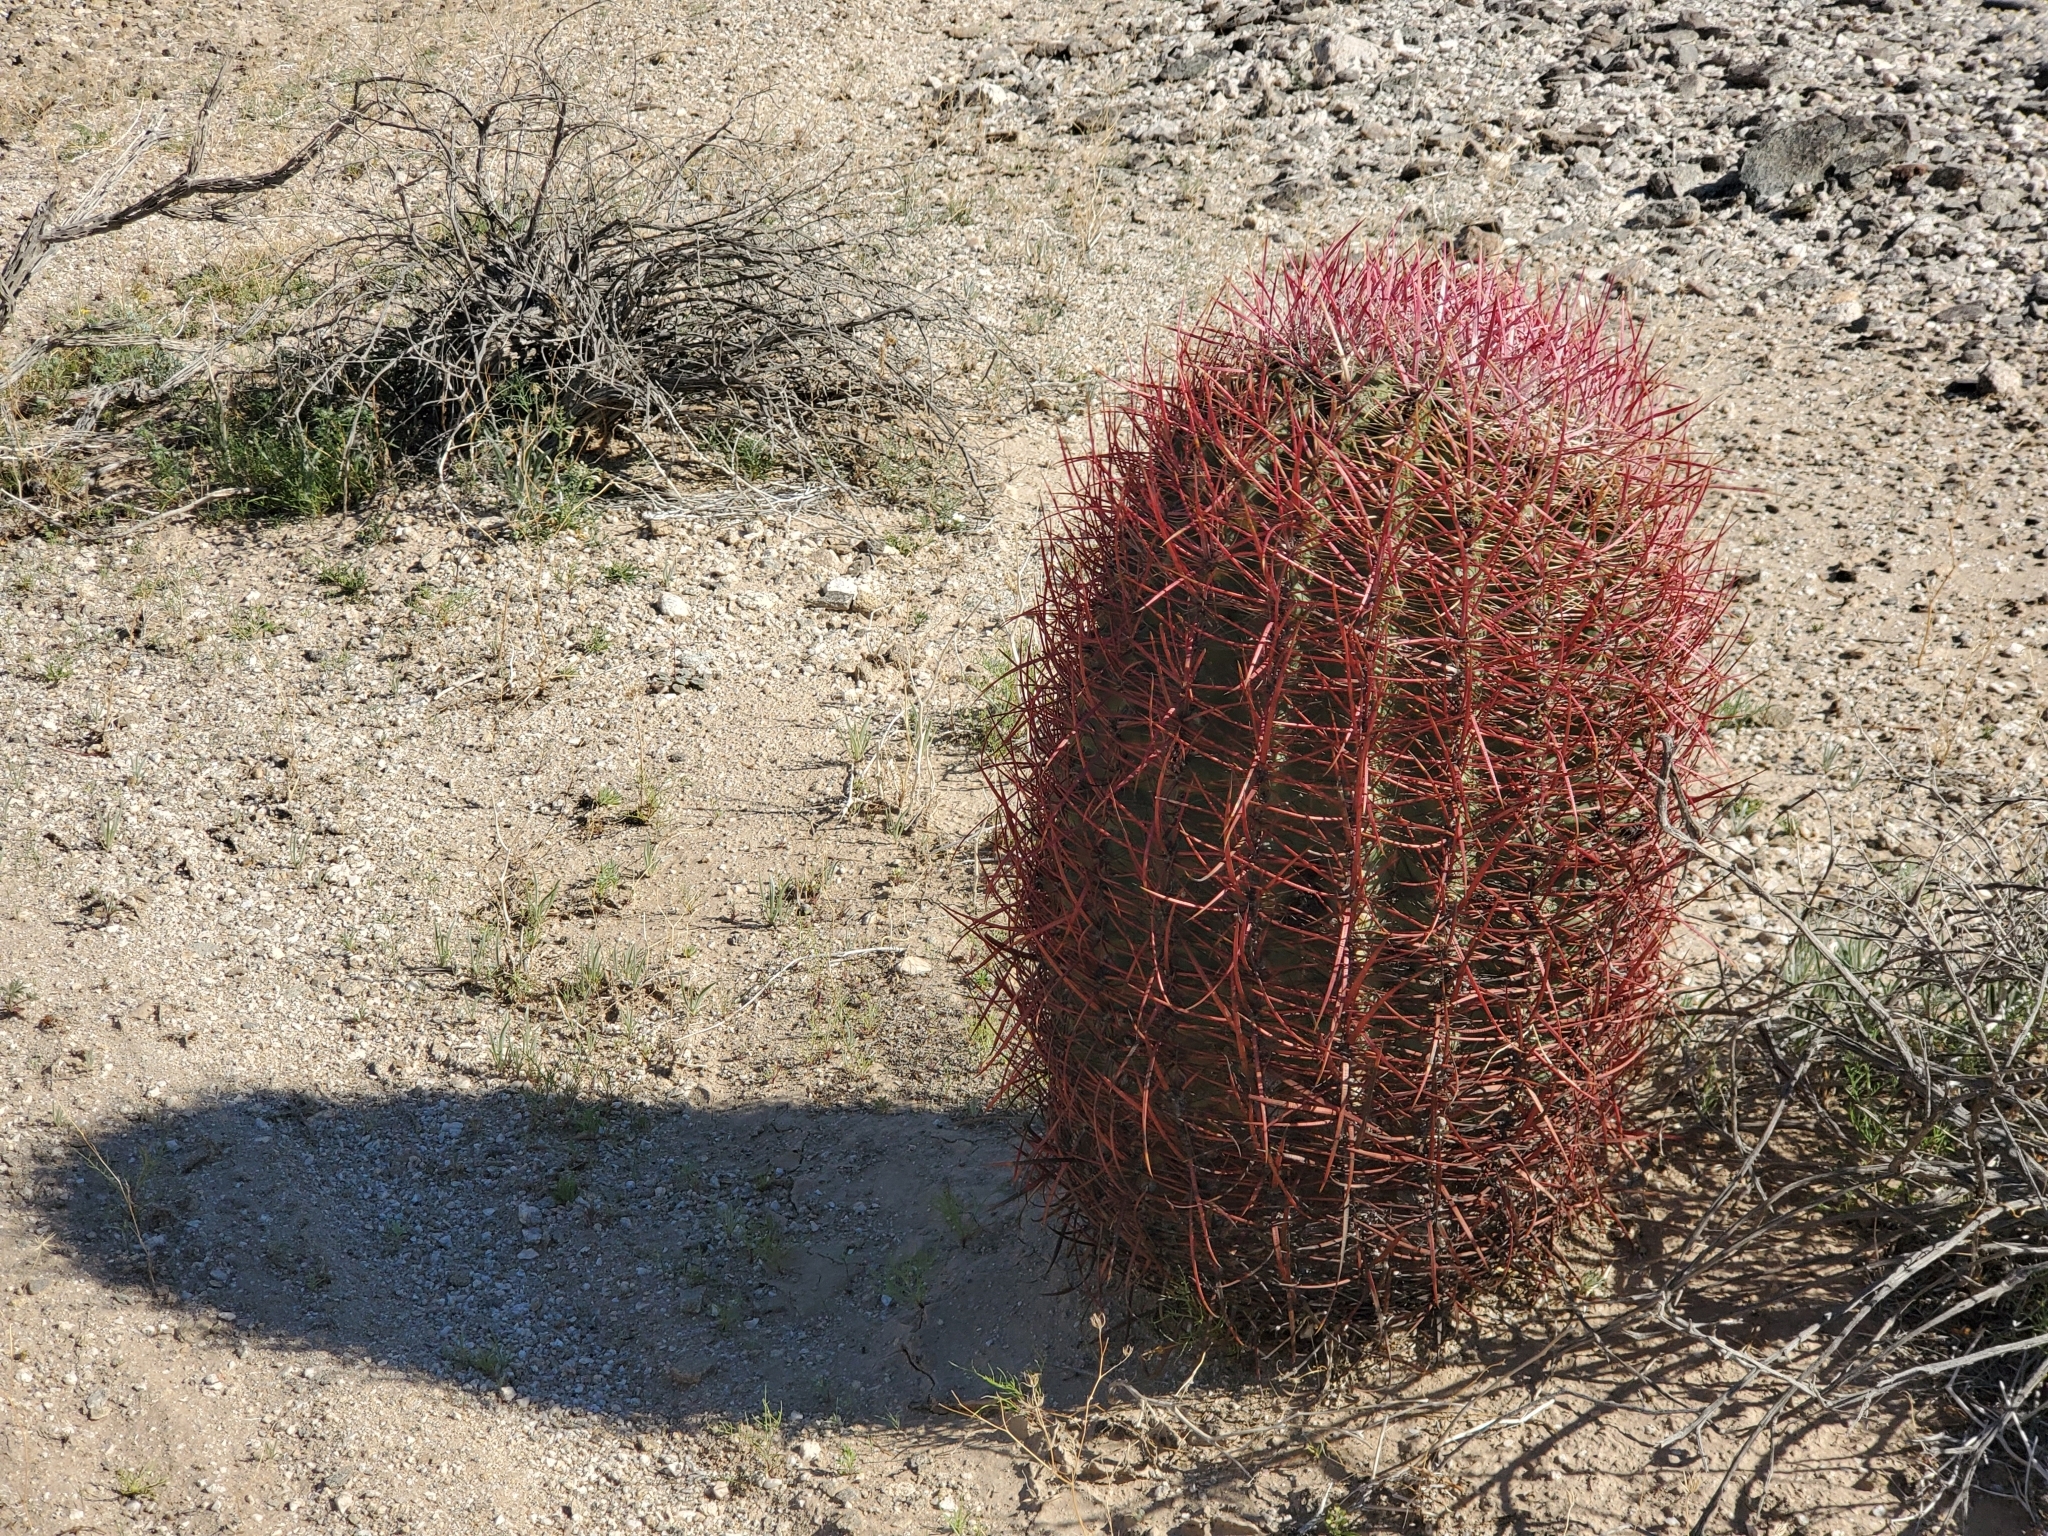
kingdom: Plantae
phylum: Tracheophyta
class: Magnoliopsida
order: Caryophyllales
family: Cactaceae
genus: Ferocactus
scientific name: Ferocactus cylindraceus
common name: California barrel cactus
